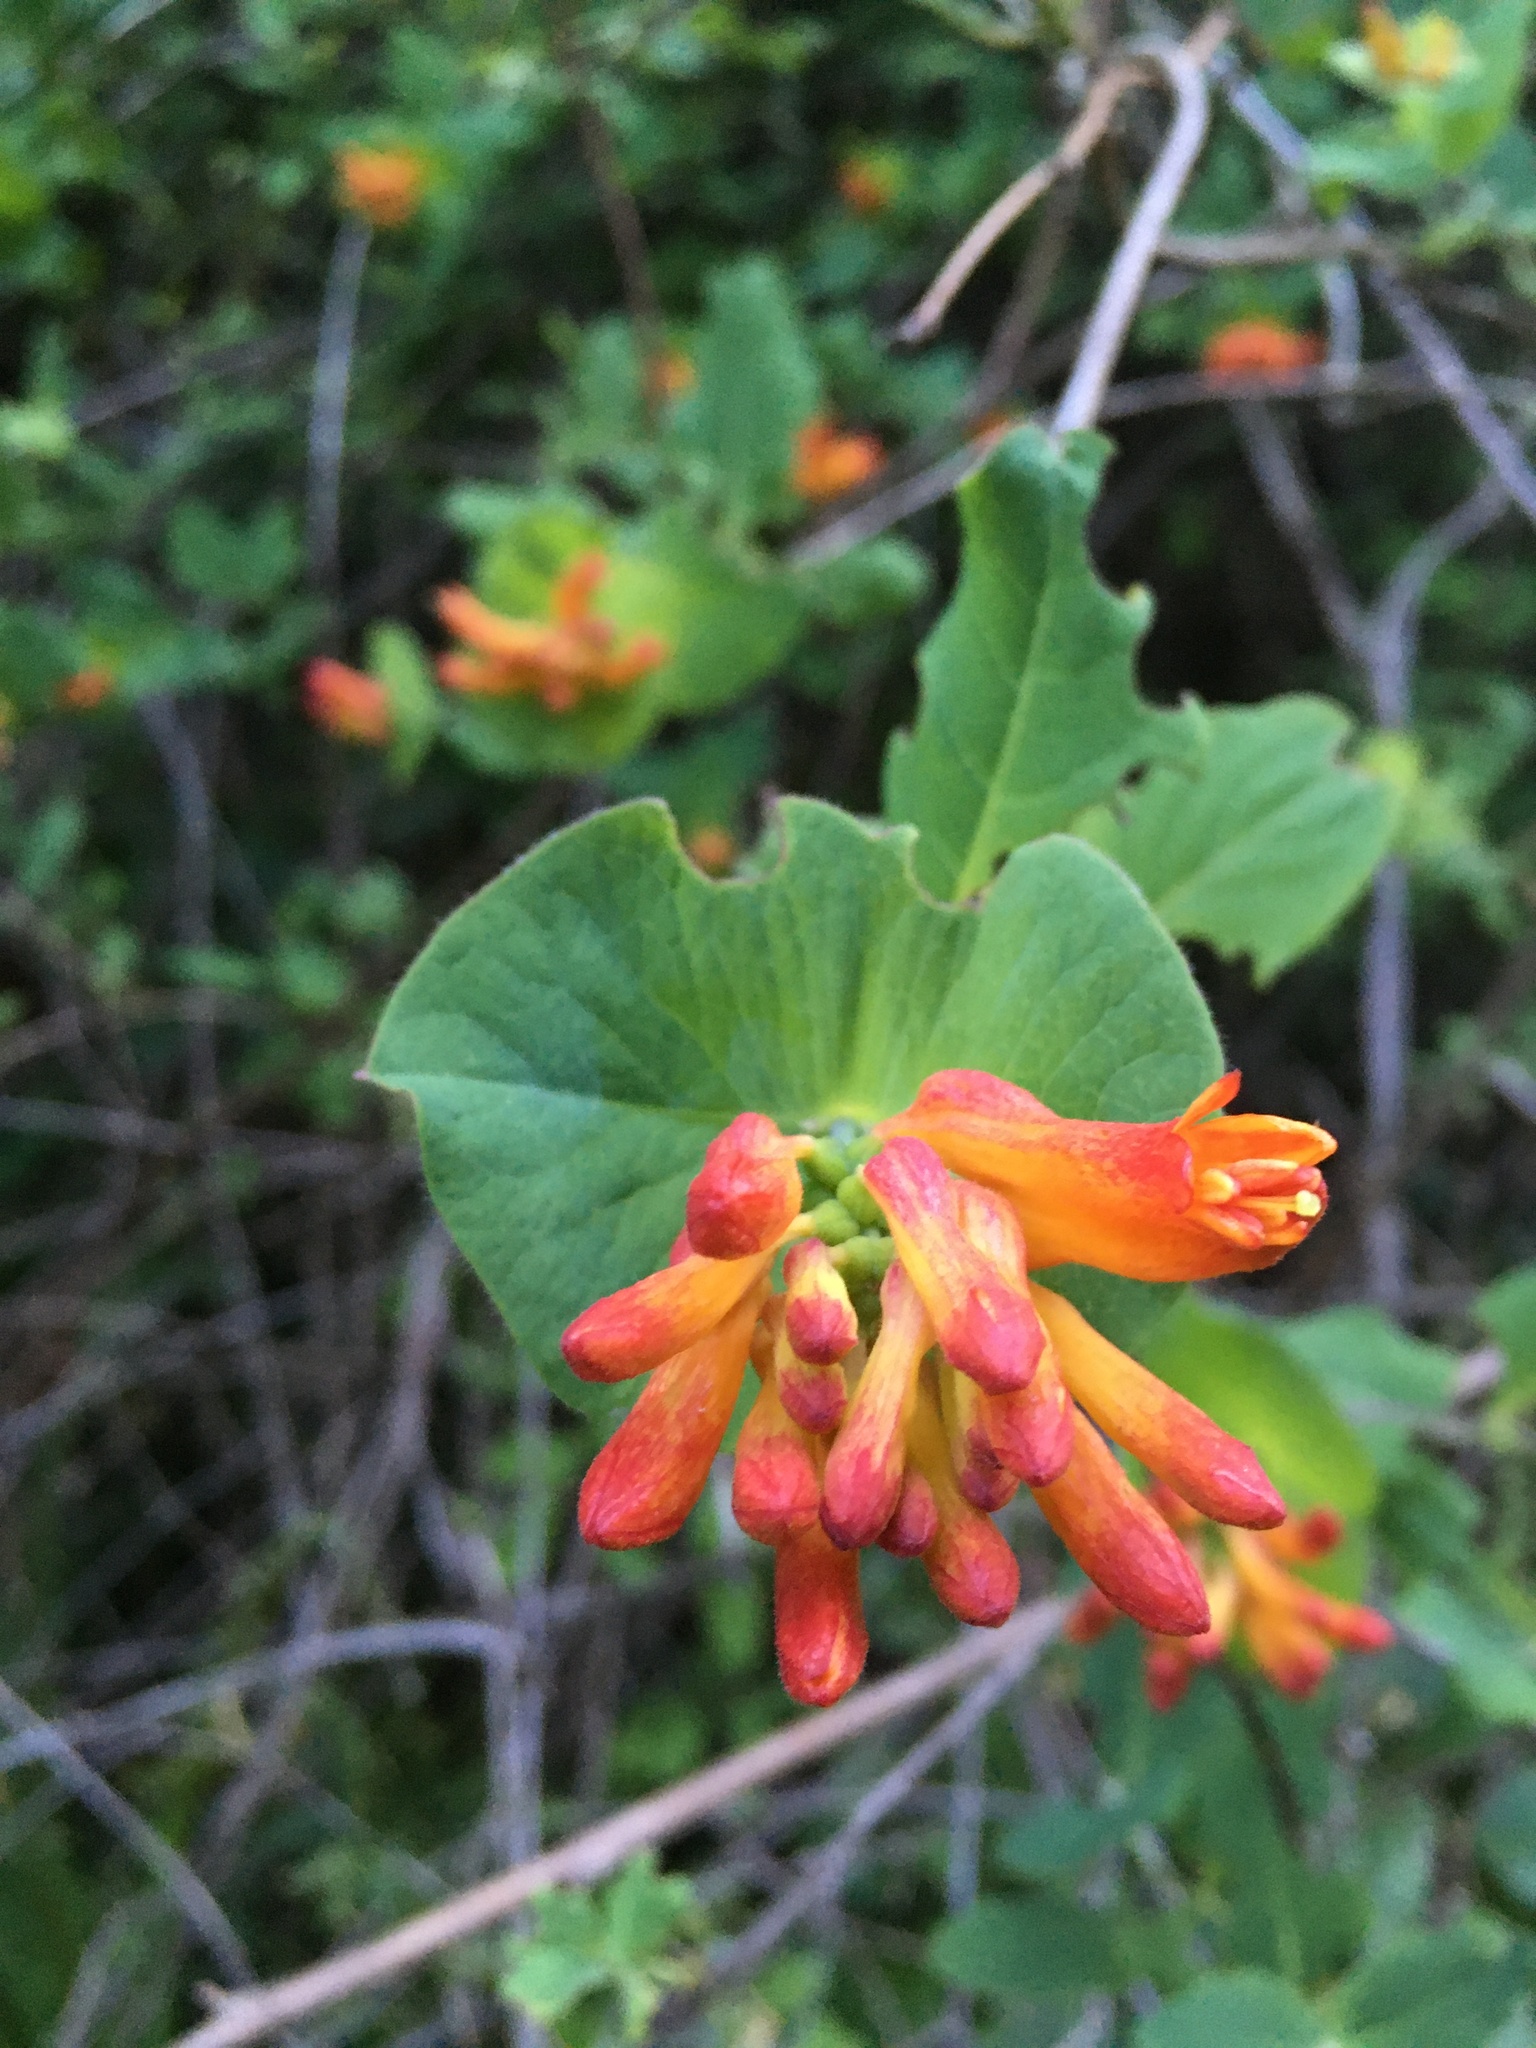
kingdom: Plantae
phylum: Tracheophyta
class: Magnoliopsida
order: Dipsacales
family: Caprifoliaceae
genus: Lonicera
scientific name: Lonicera ciliosa
